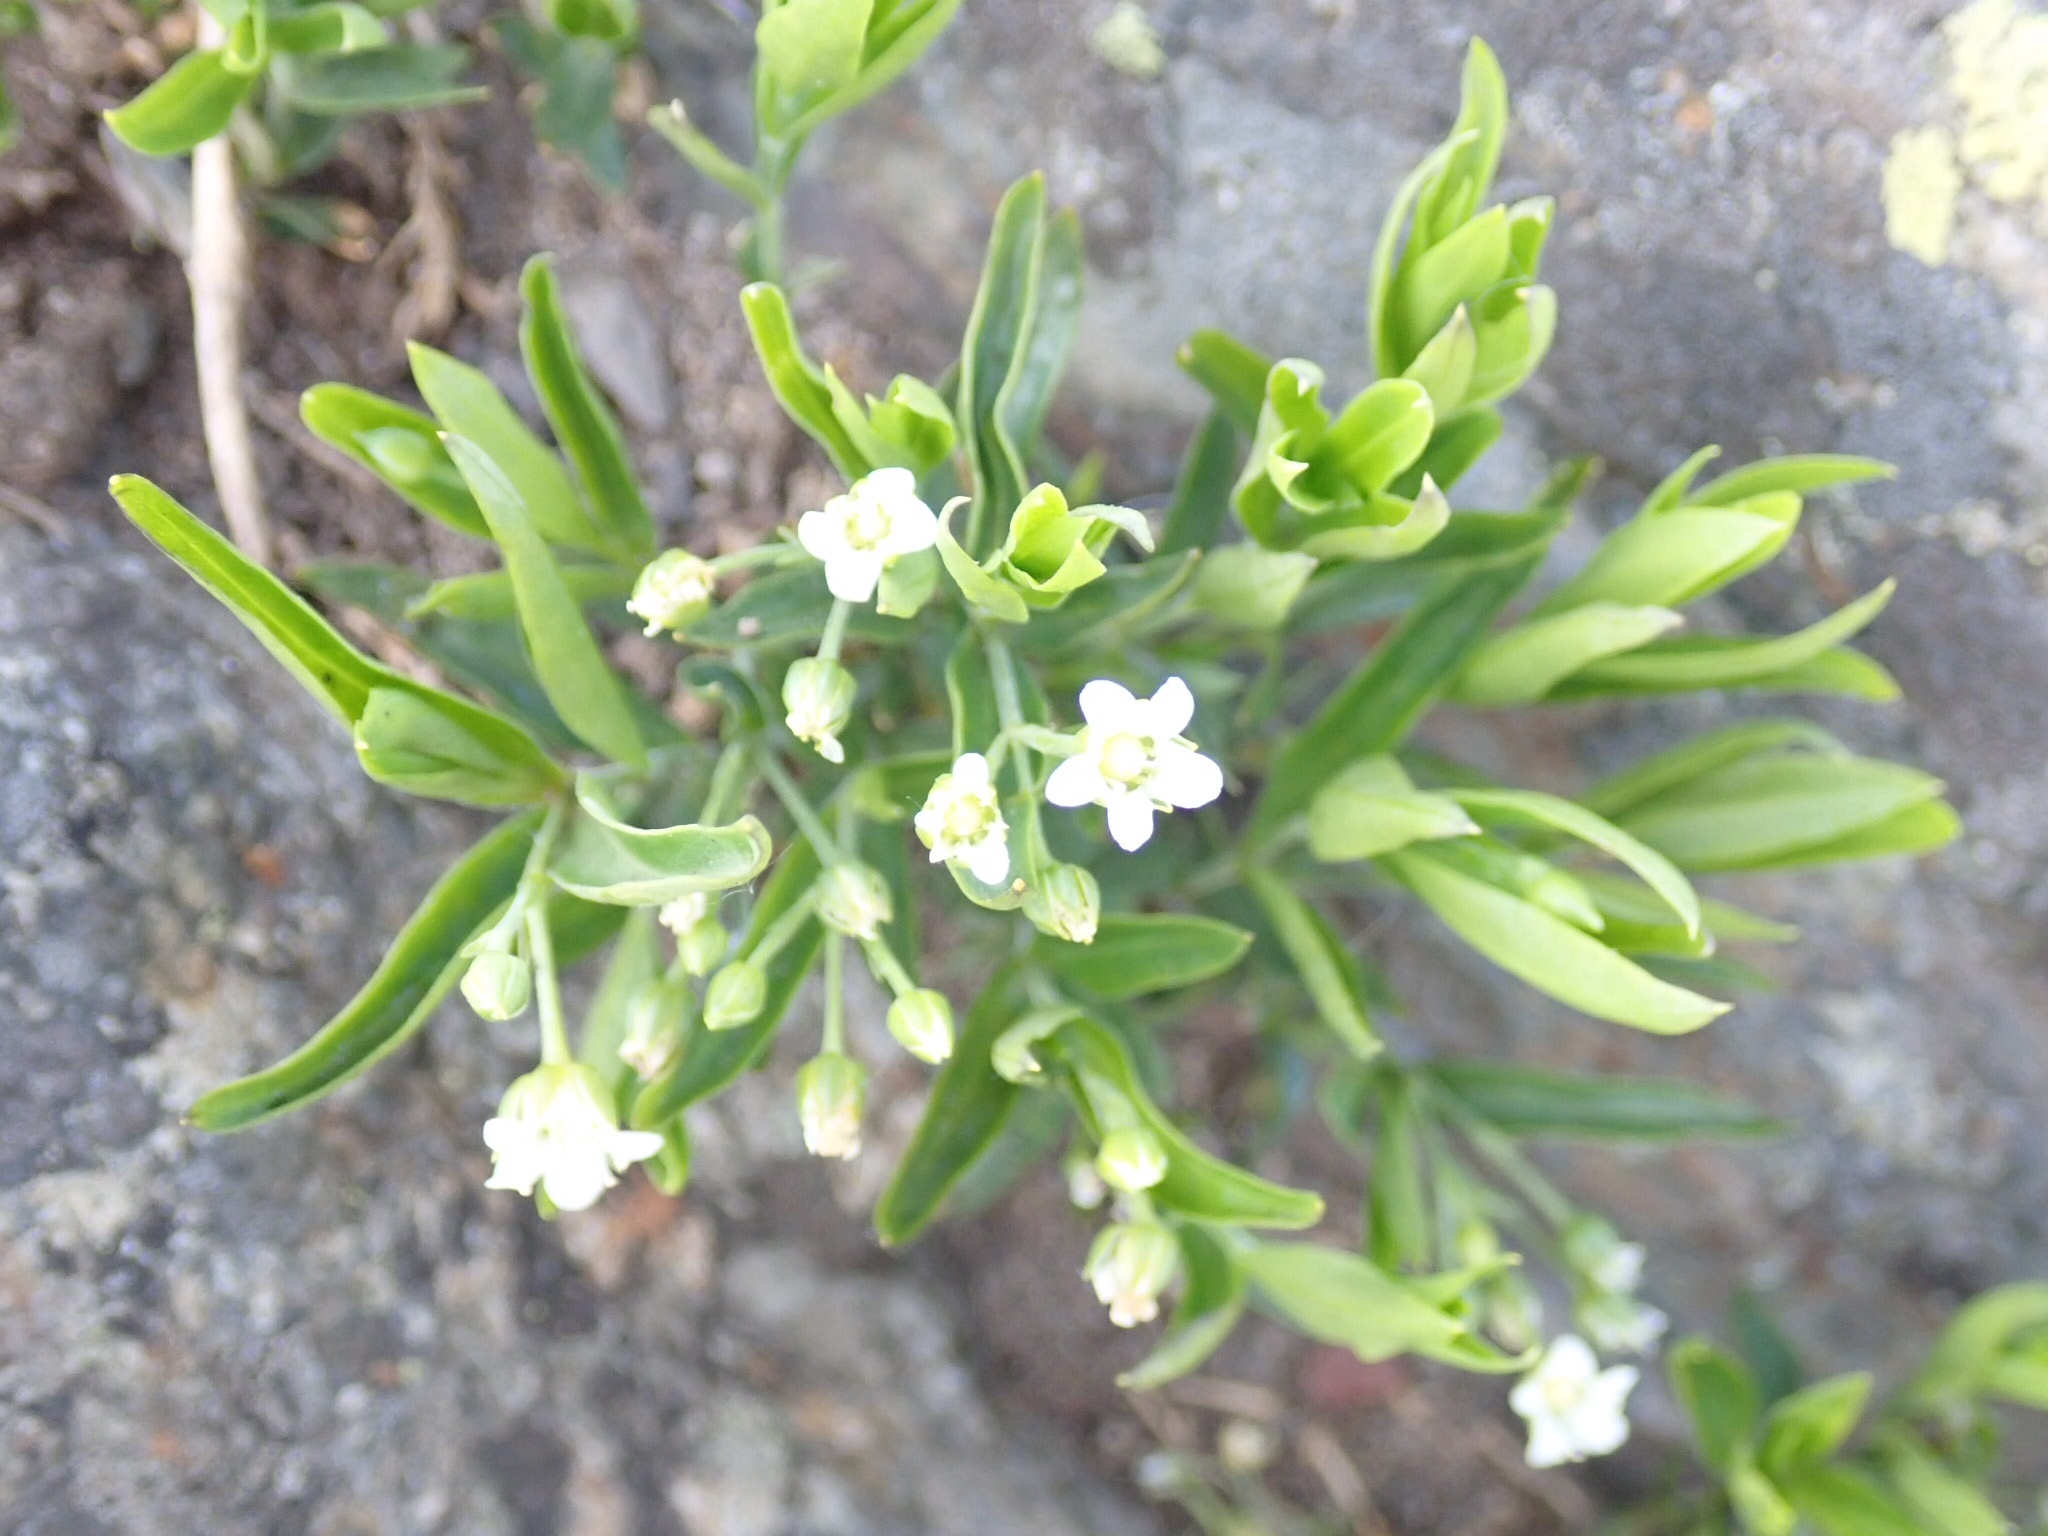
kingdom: Plantae
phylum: Tracheophyta
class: Magnoliopsida
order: Caryophyllales
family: Caryophyllaceae
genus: Moehringia
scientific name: Moehringia macrophylla
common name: Big-leaf sandwort
